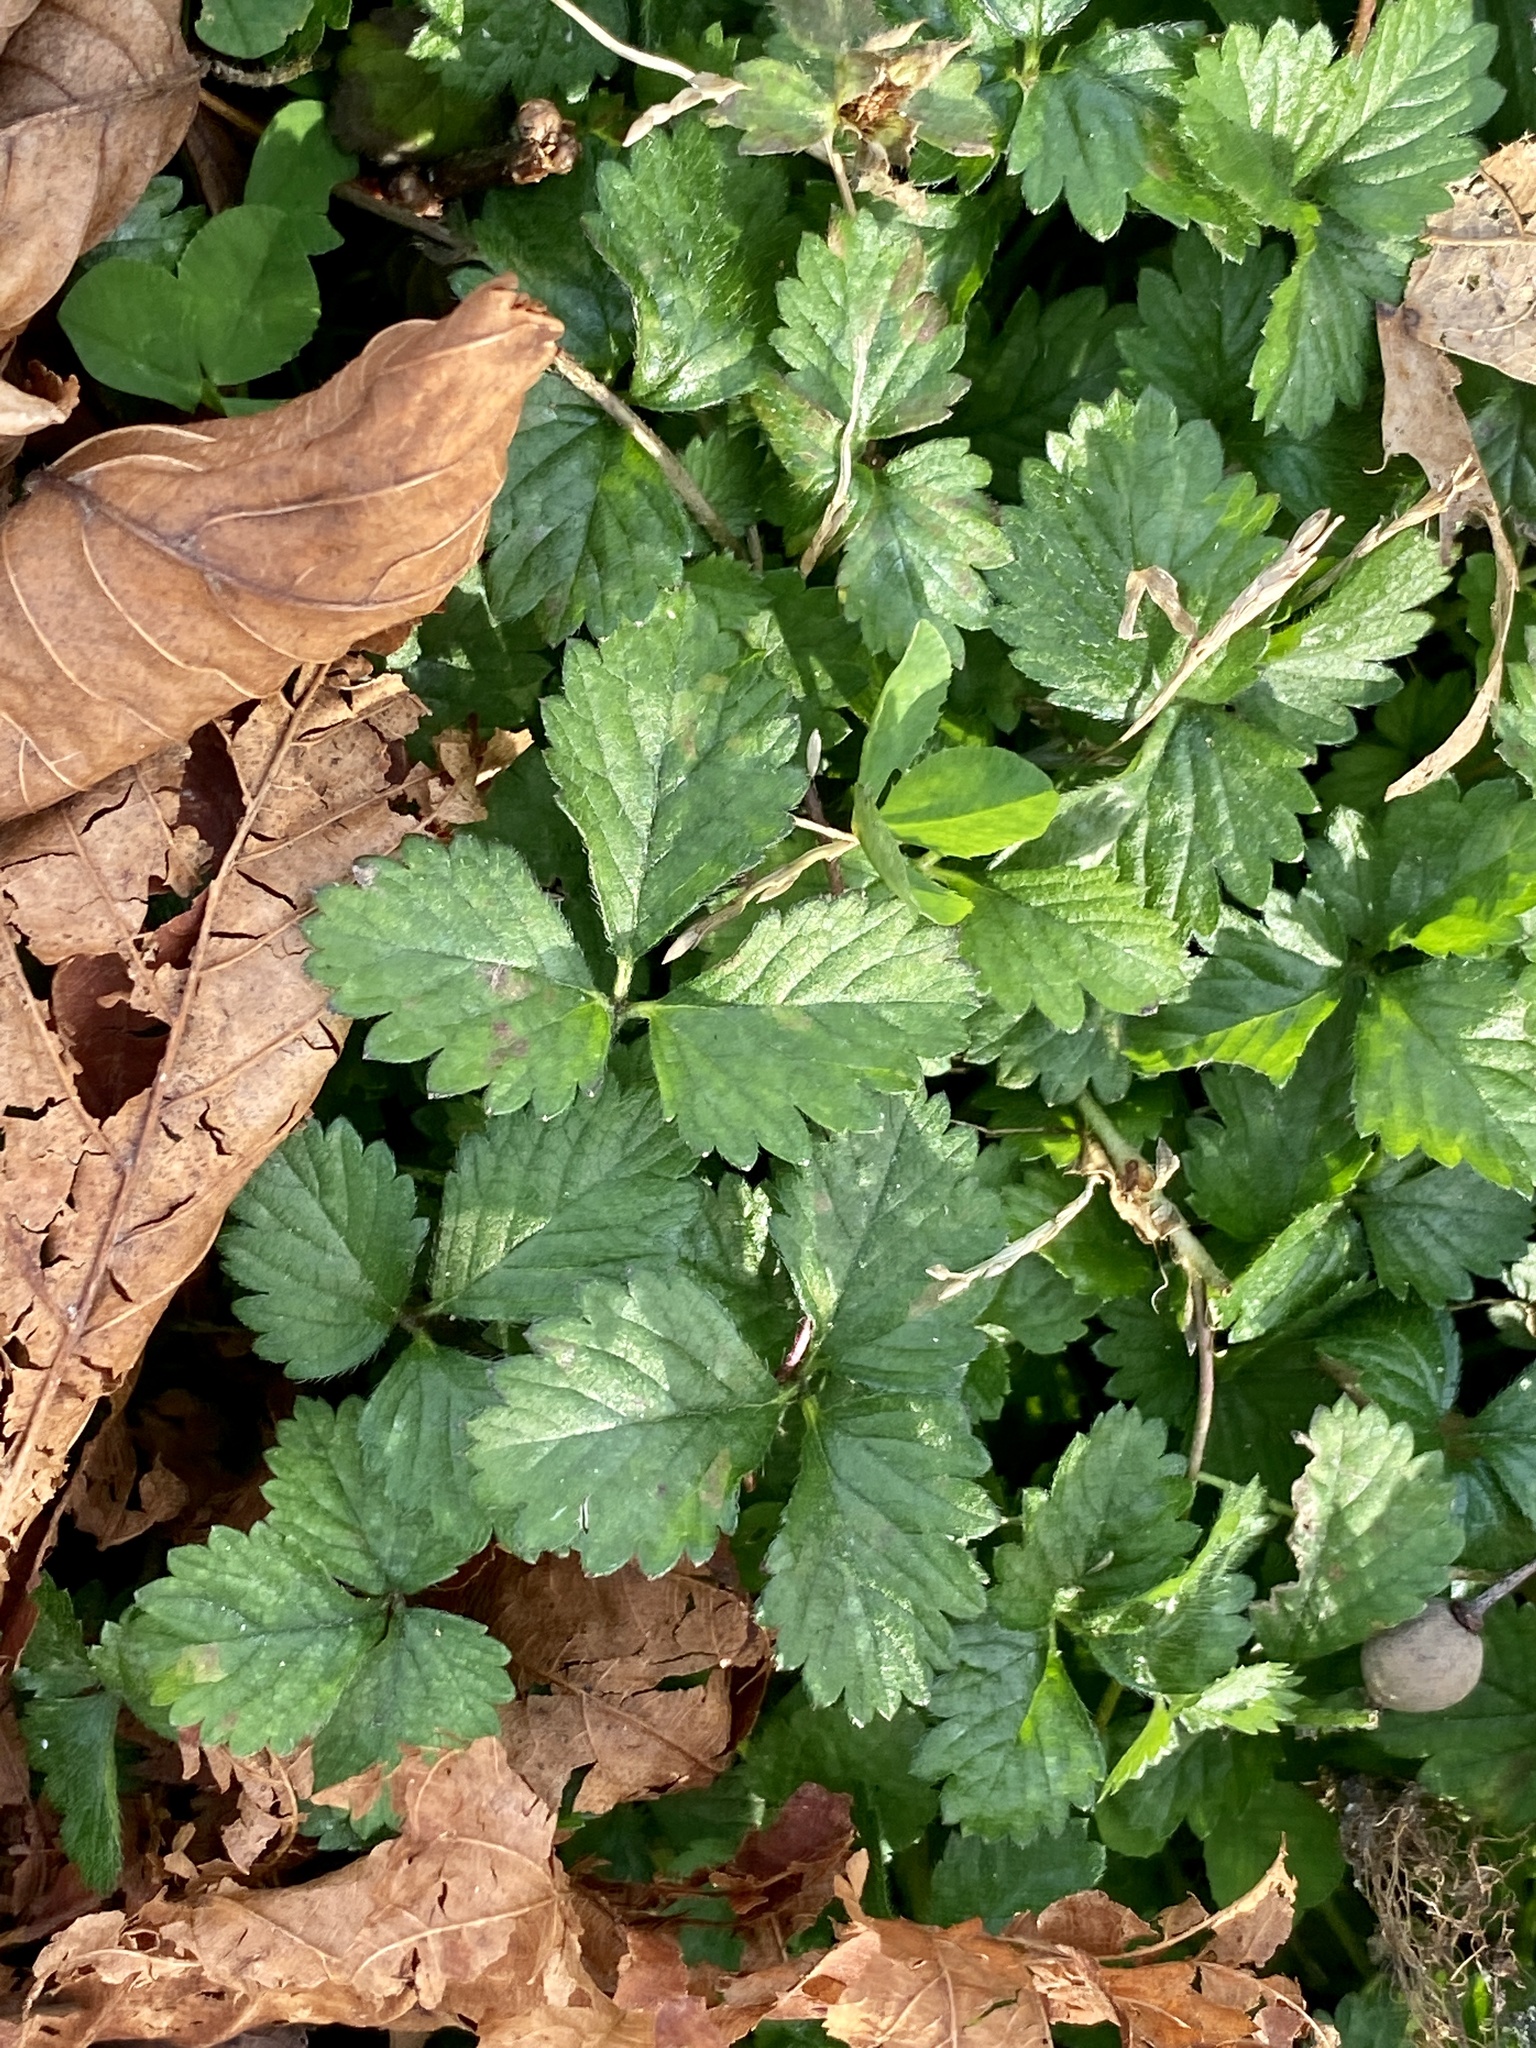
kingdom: Plantae
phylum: Tracheophyta
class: Magnoliopsida
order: Rosales
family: Rosaceae
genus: Potentilla
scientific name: Potentilla indica
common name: Yellow-flowered strawberry
